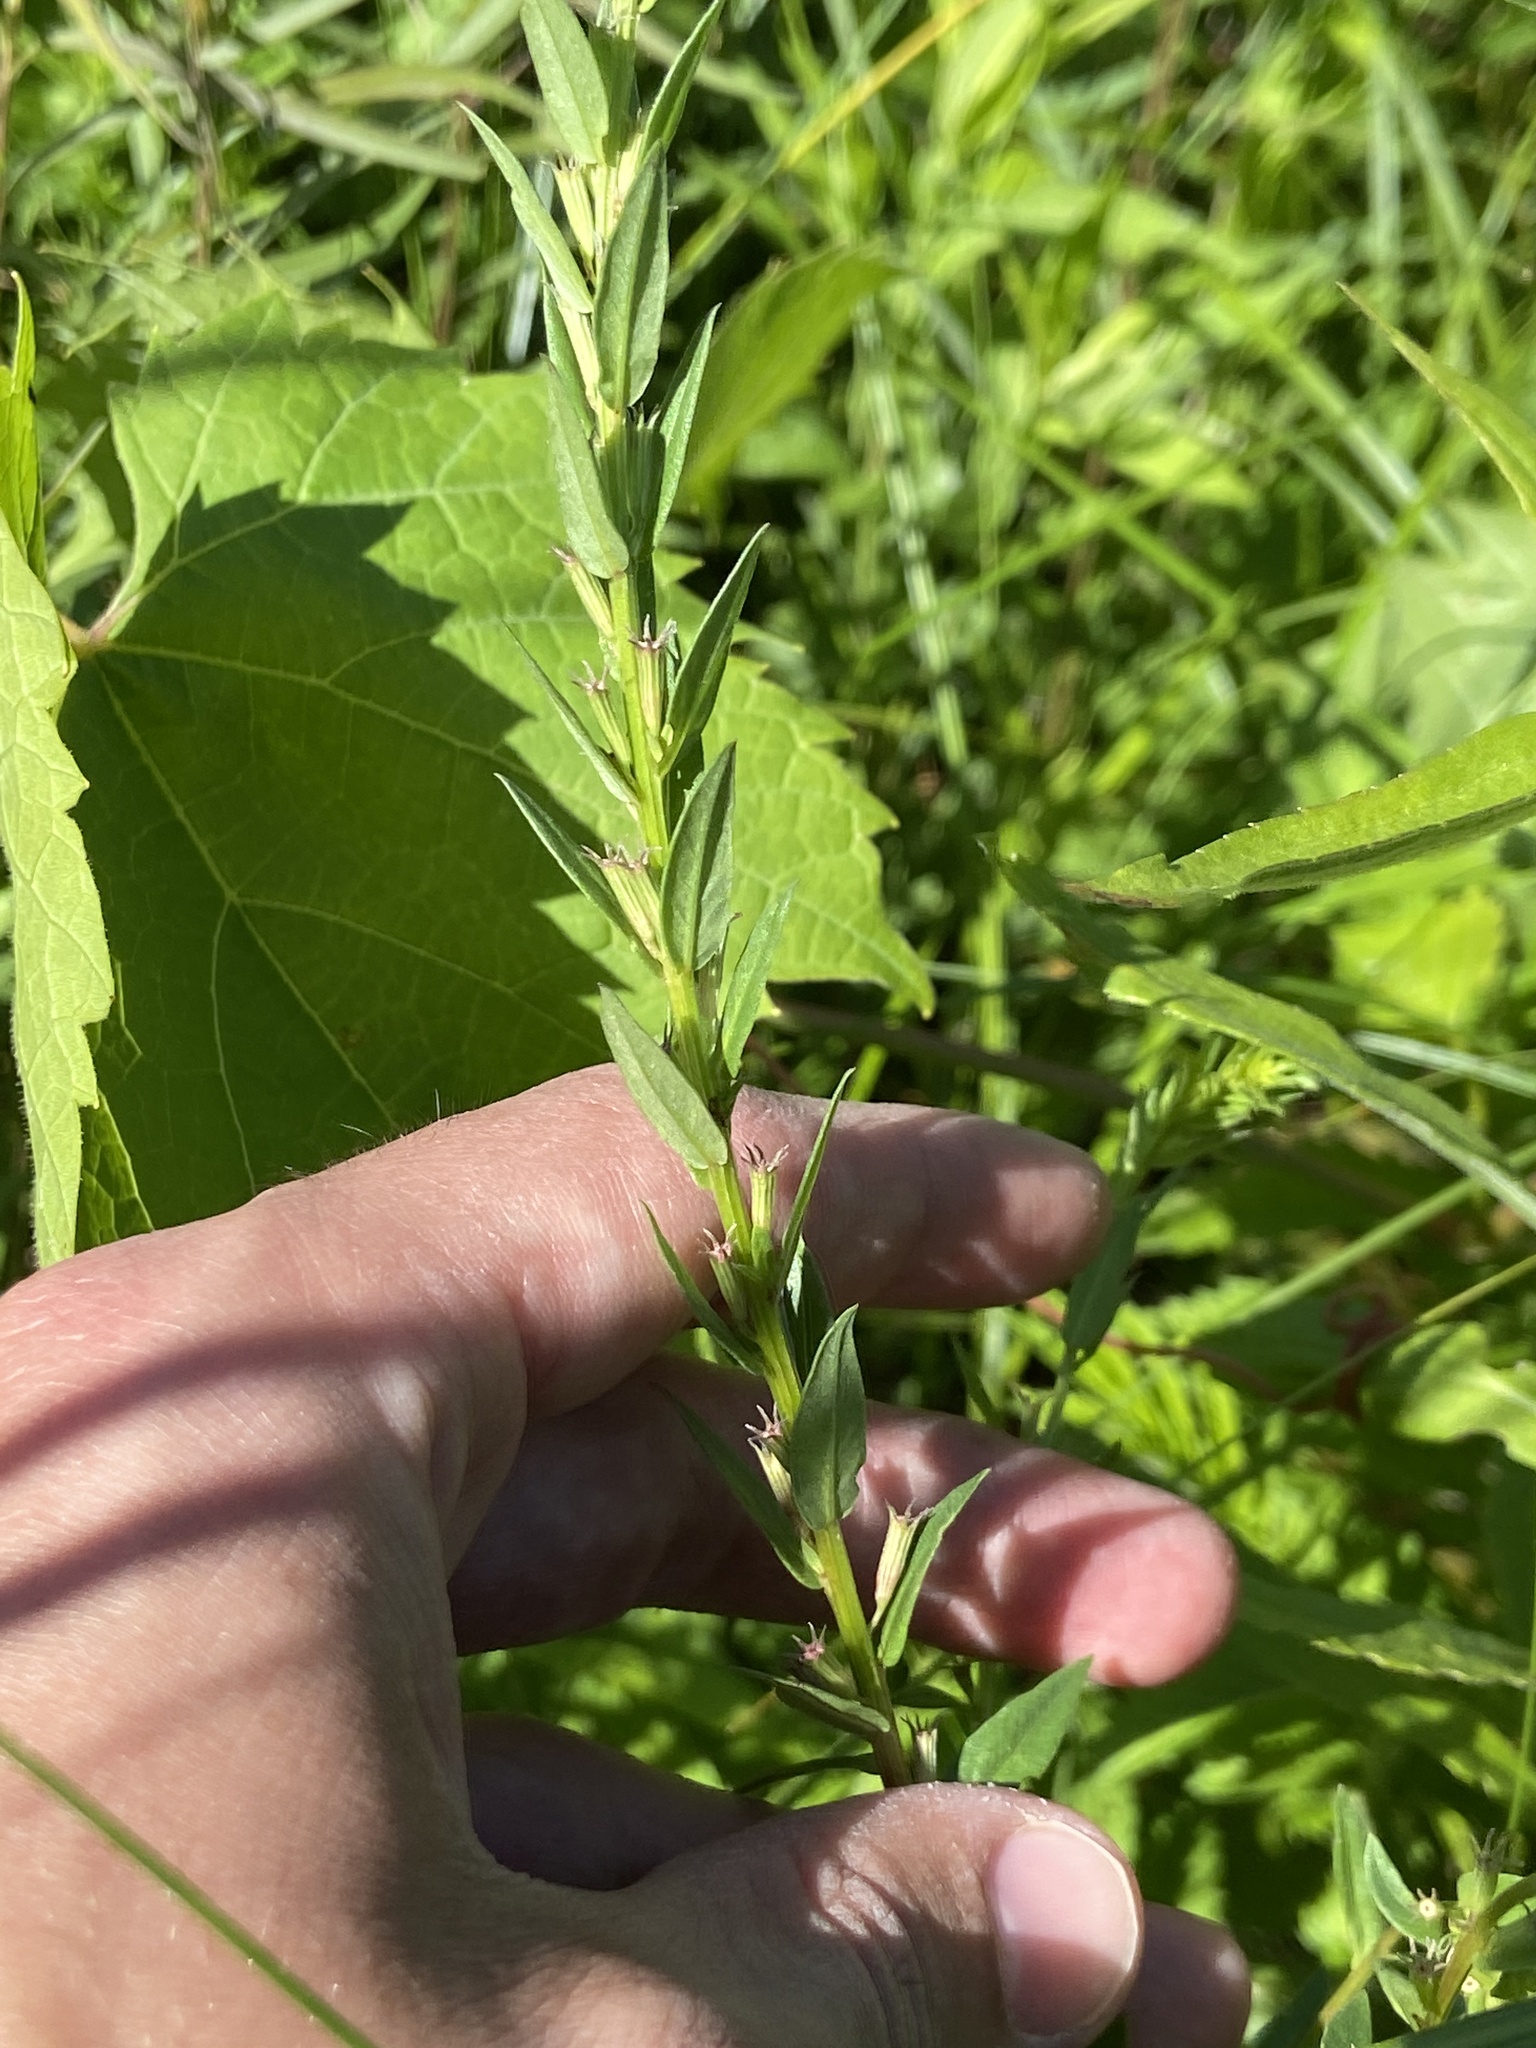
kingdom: Plantae
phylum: Tracheophyta
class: Magnoliopsida
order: Myrtales
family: Lythraceae
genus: Lythrum
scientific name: Lythrum alatum
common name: Winged loosestrife
